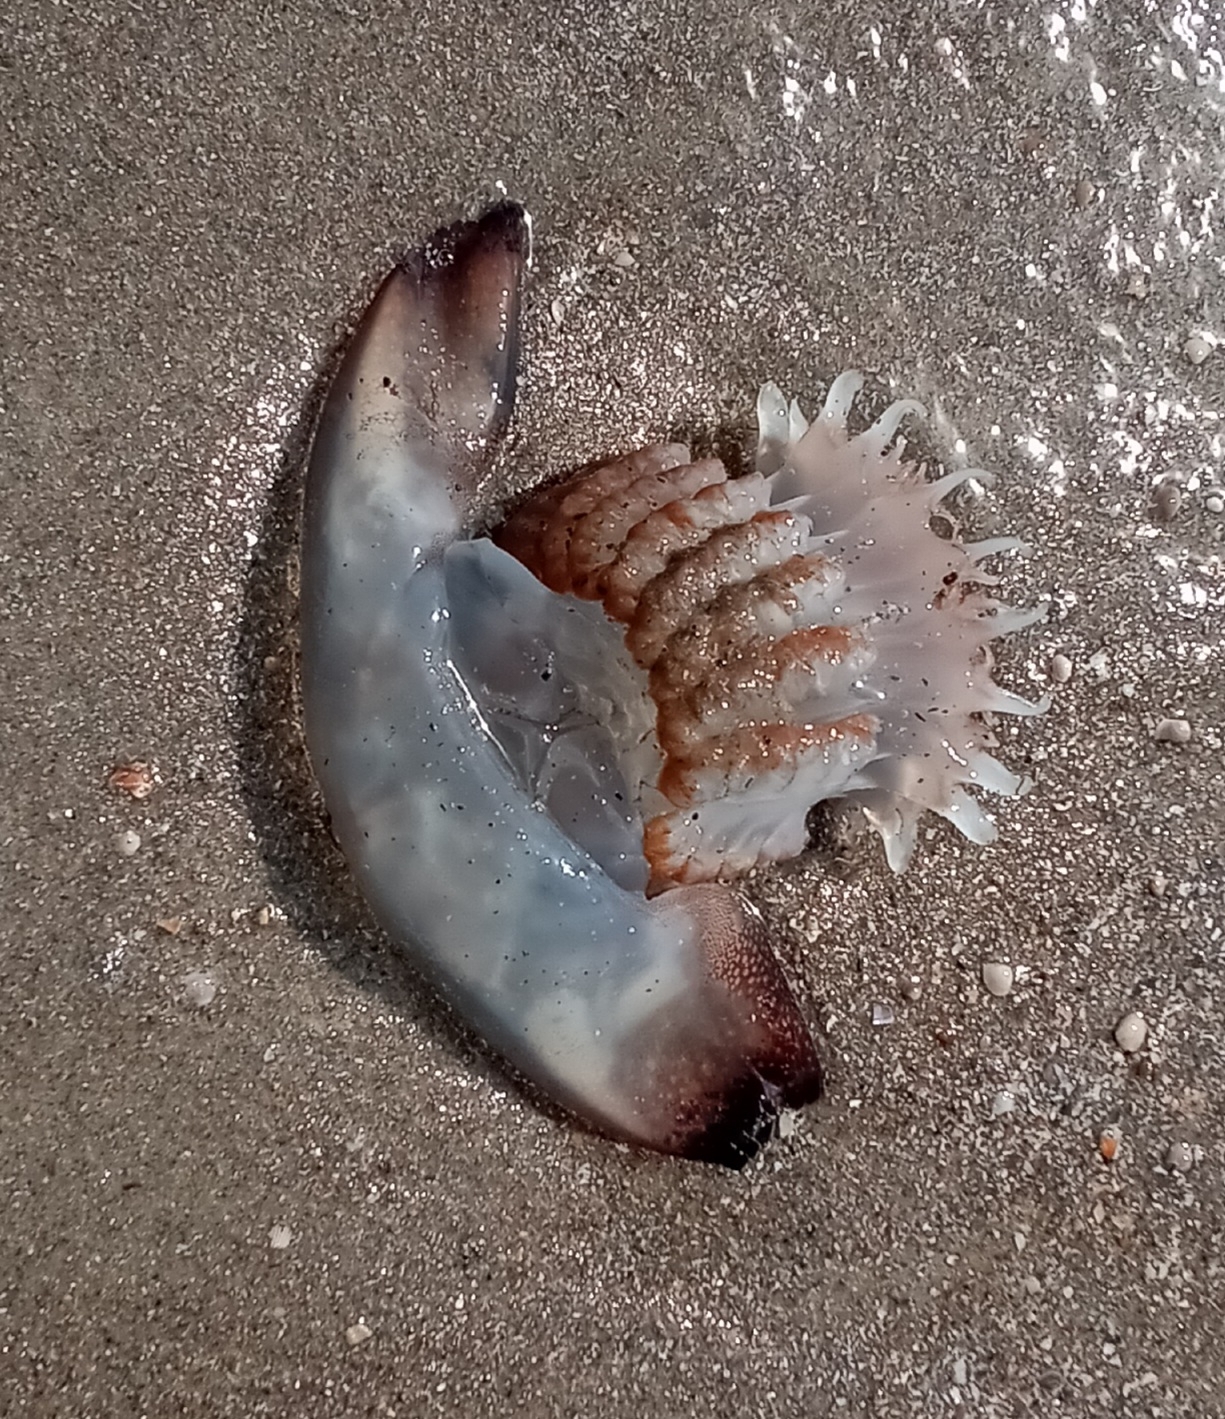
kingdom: Animalia
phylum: Cnidaria
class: Scyphozoa
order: Rhizostomeae
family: Stomolophidae
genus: Stomolophus
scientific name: Stomolophus meleagris
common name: Cabbagehead
